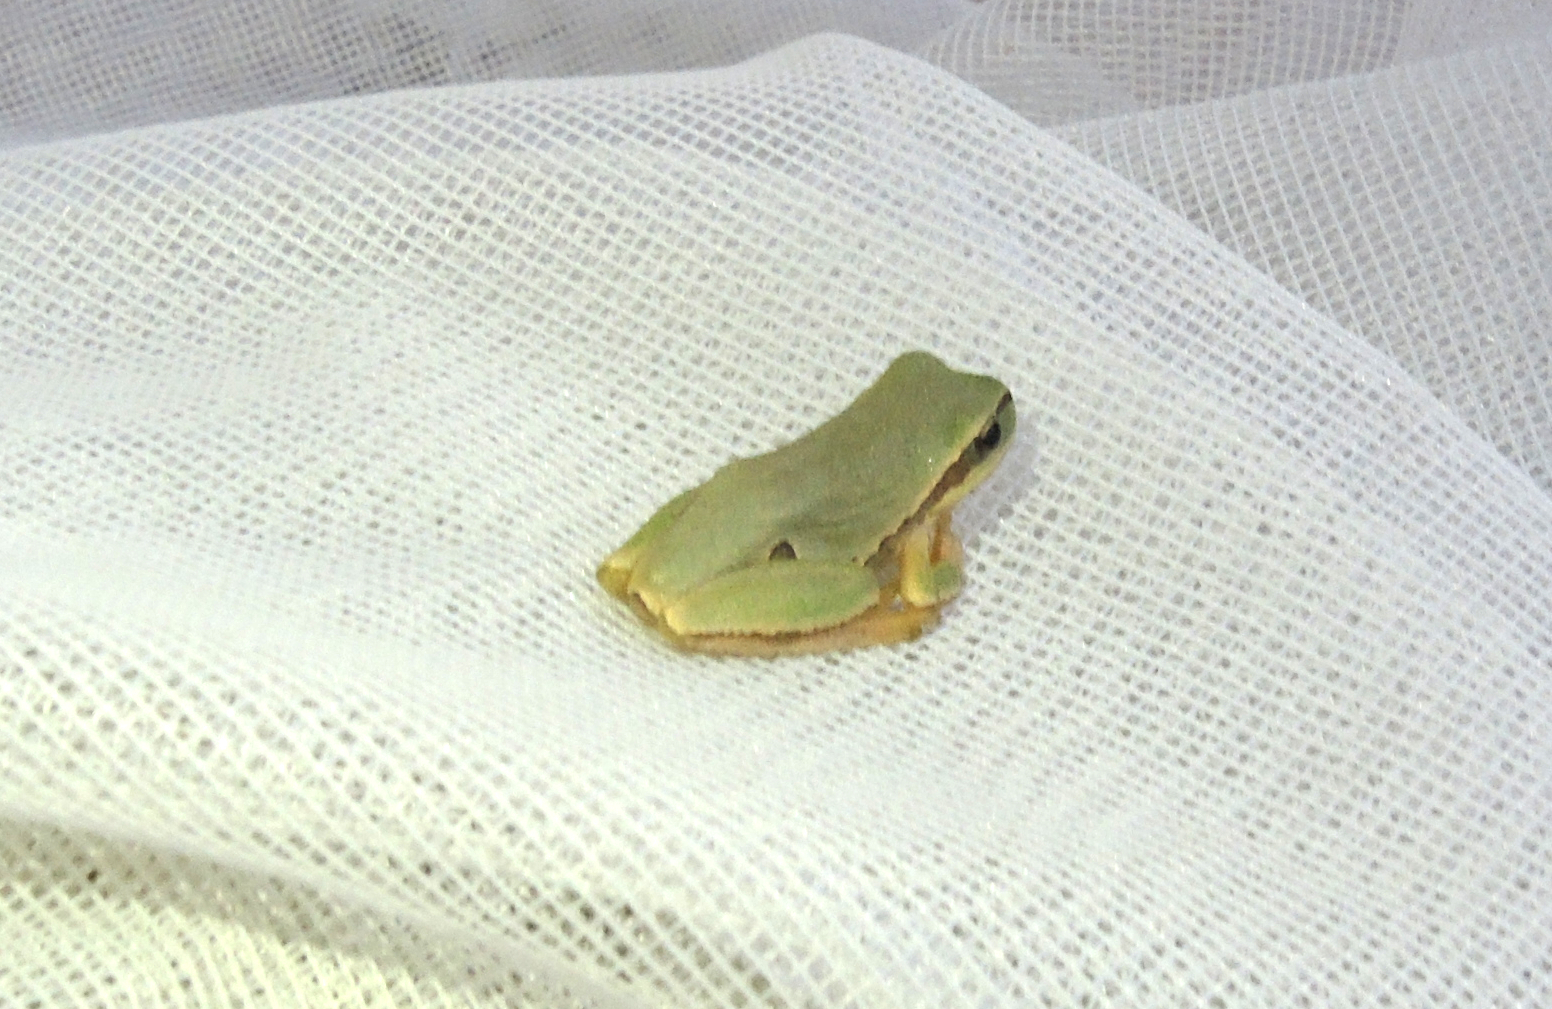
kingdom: Animalia
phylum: Chordata
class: Amphibia
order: Anura
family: Hylidae
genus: Hyla
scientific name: Hyla orientalis
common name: Caucasian treefrog
